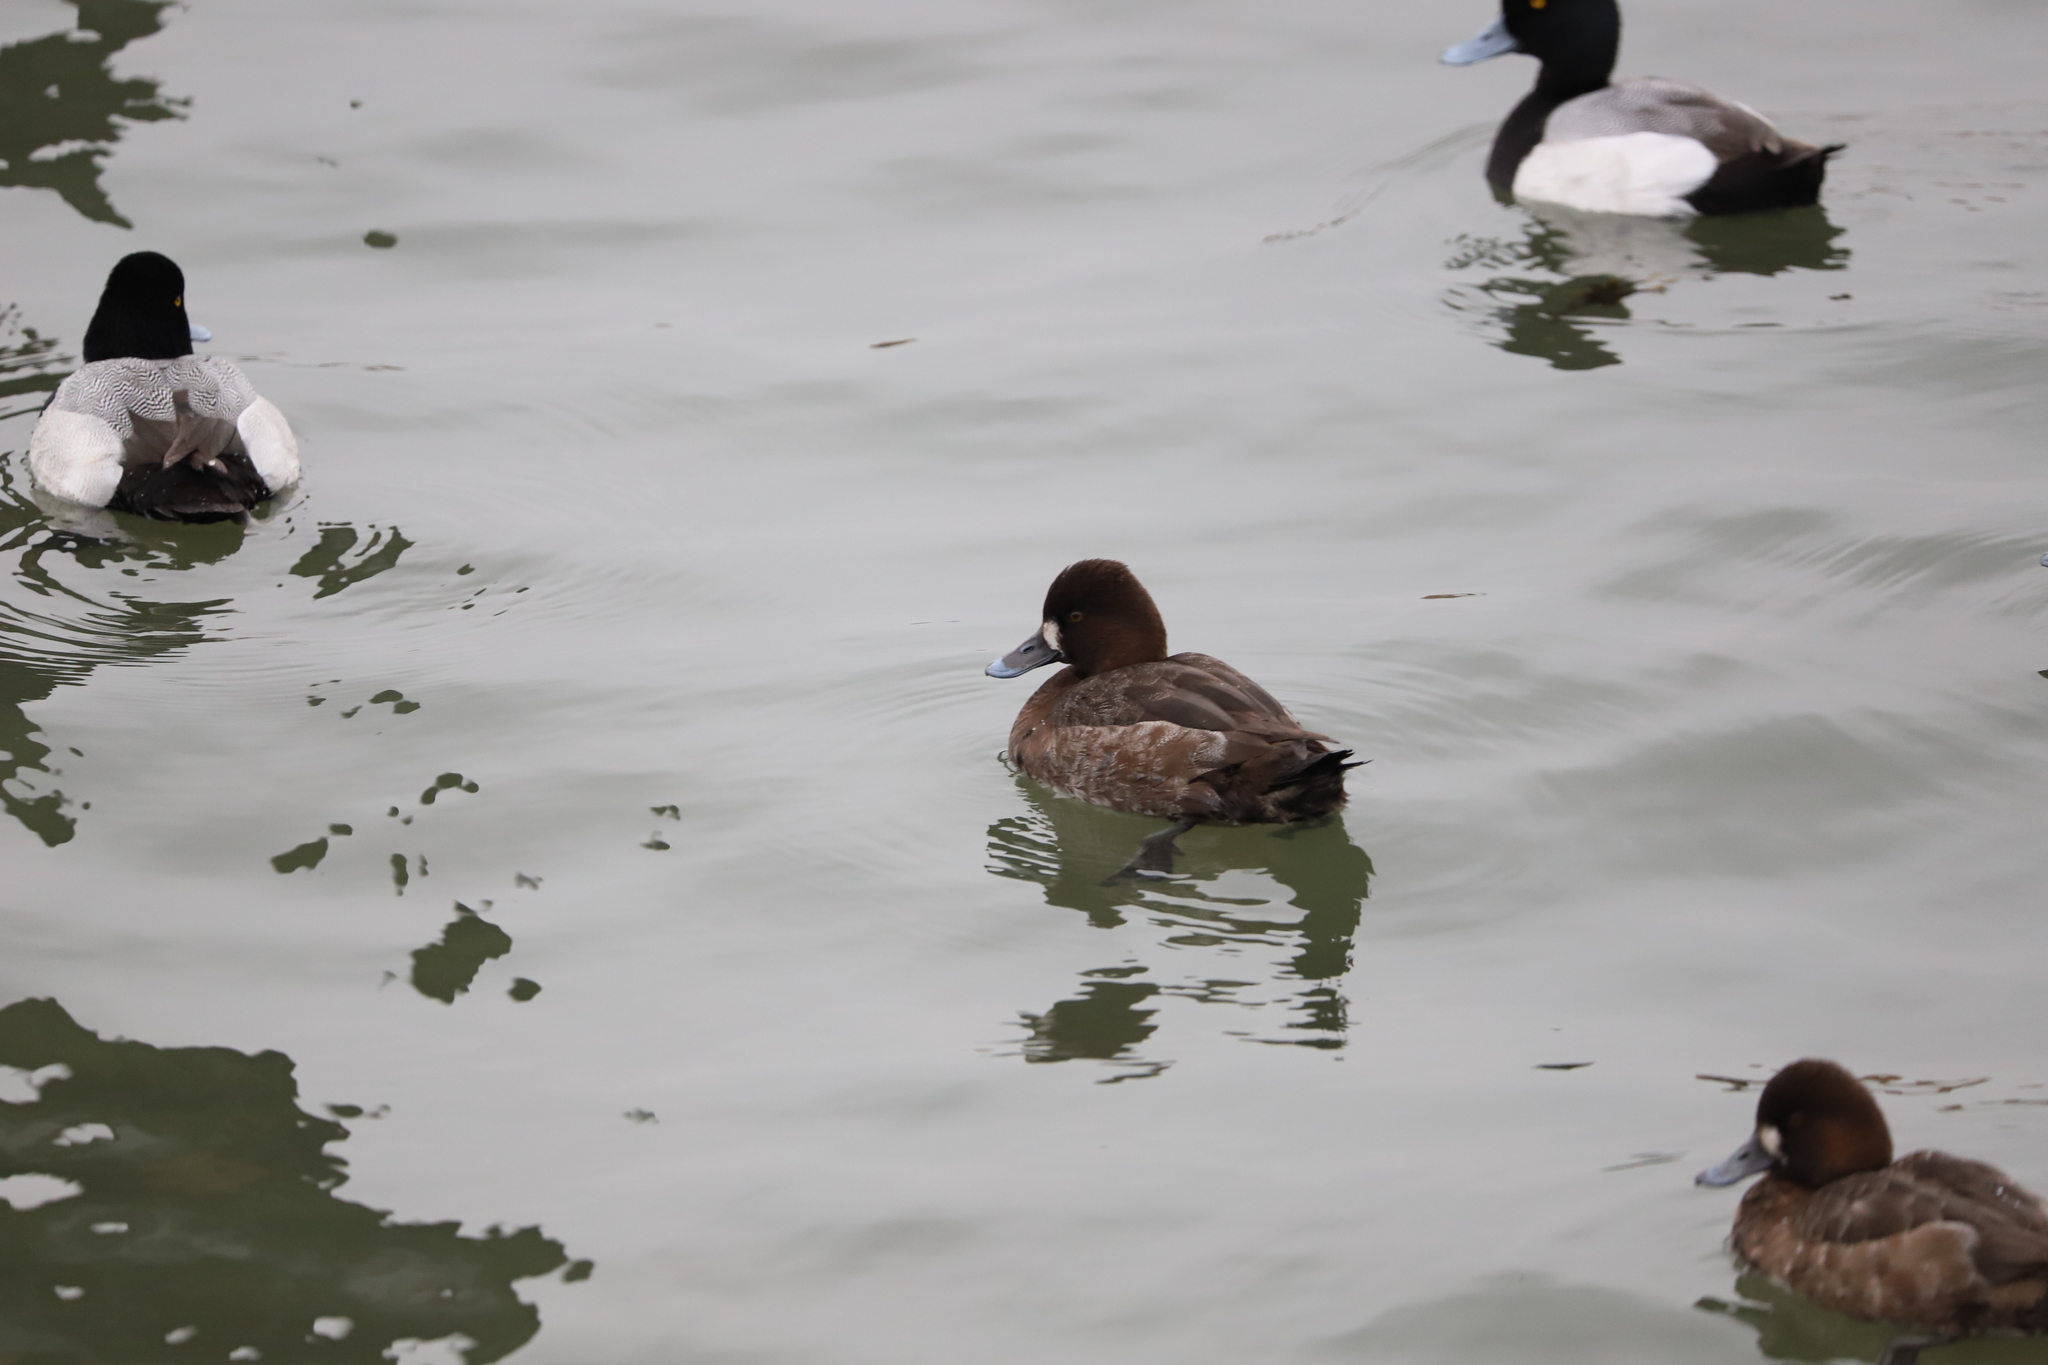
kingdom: Animalia
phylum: Chordata
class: Aves
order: Anseriformes
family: Anatidae
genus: Aythya
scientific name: Aythya affinis
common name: Lesser scaup
